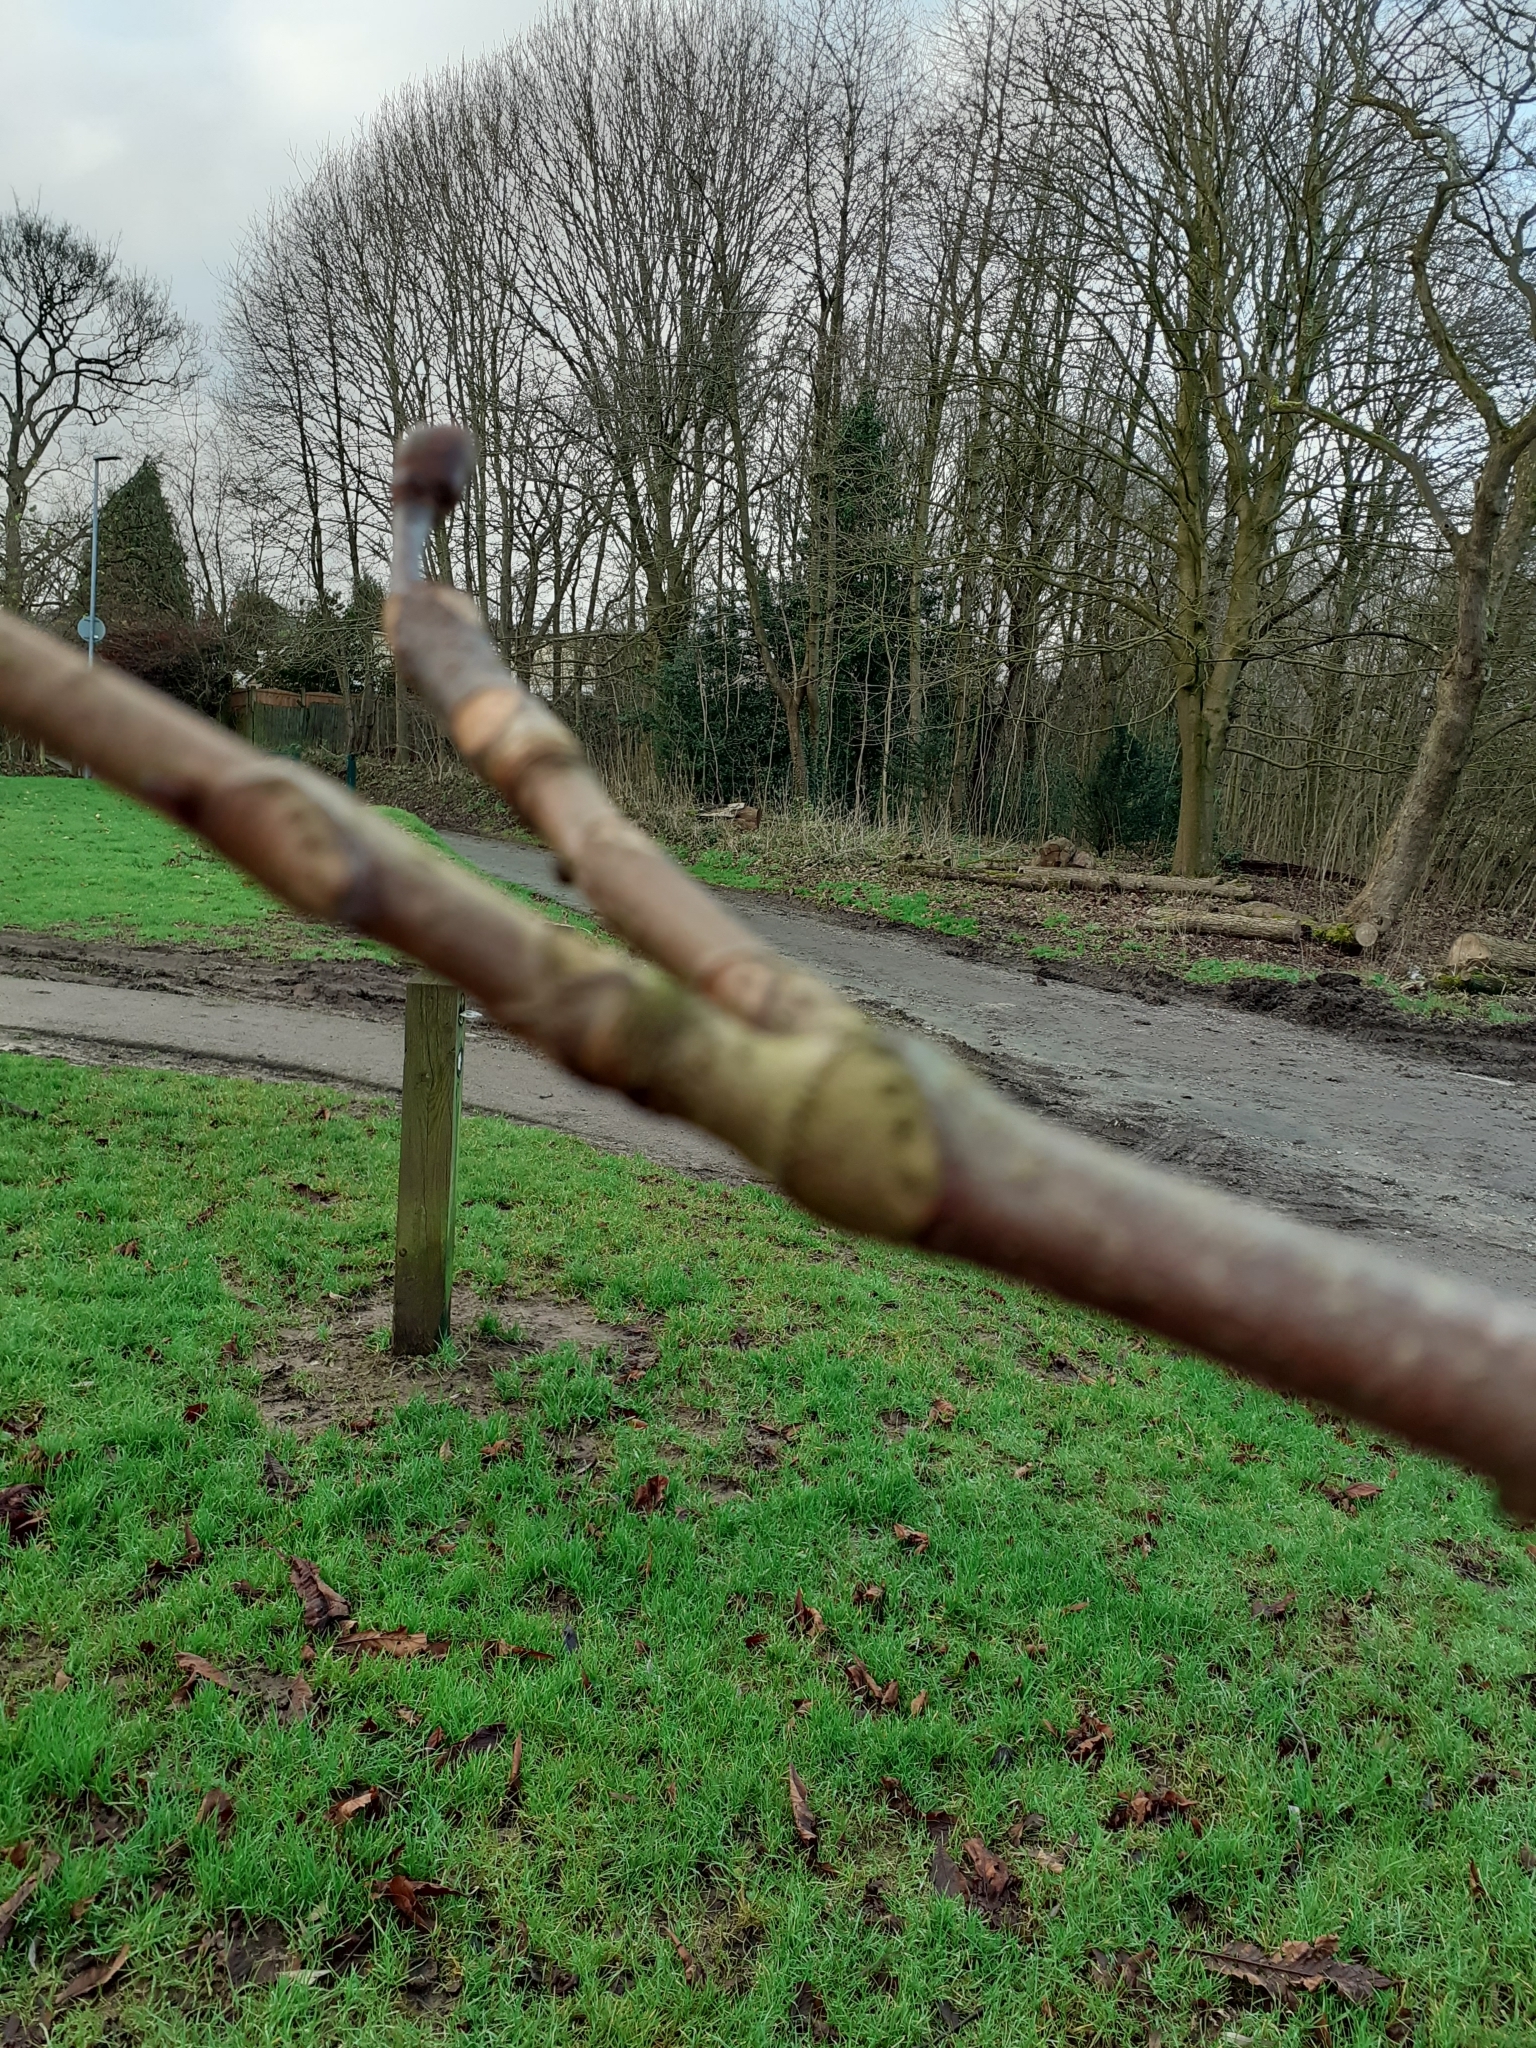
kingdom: Plantae
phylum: Tracheophyta
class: Magnoliopsida
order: Sapindales
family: Sapindaceae
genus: Aesculus
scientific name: Aesculus hippocastanum
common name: Horse-chestnut
